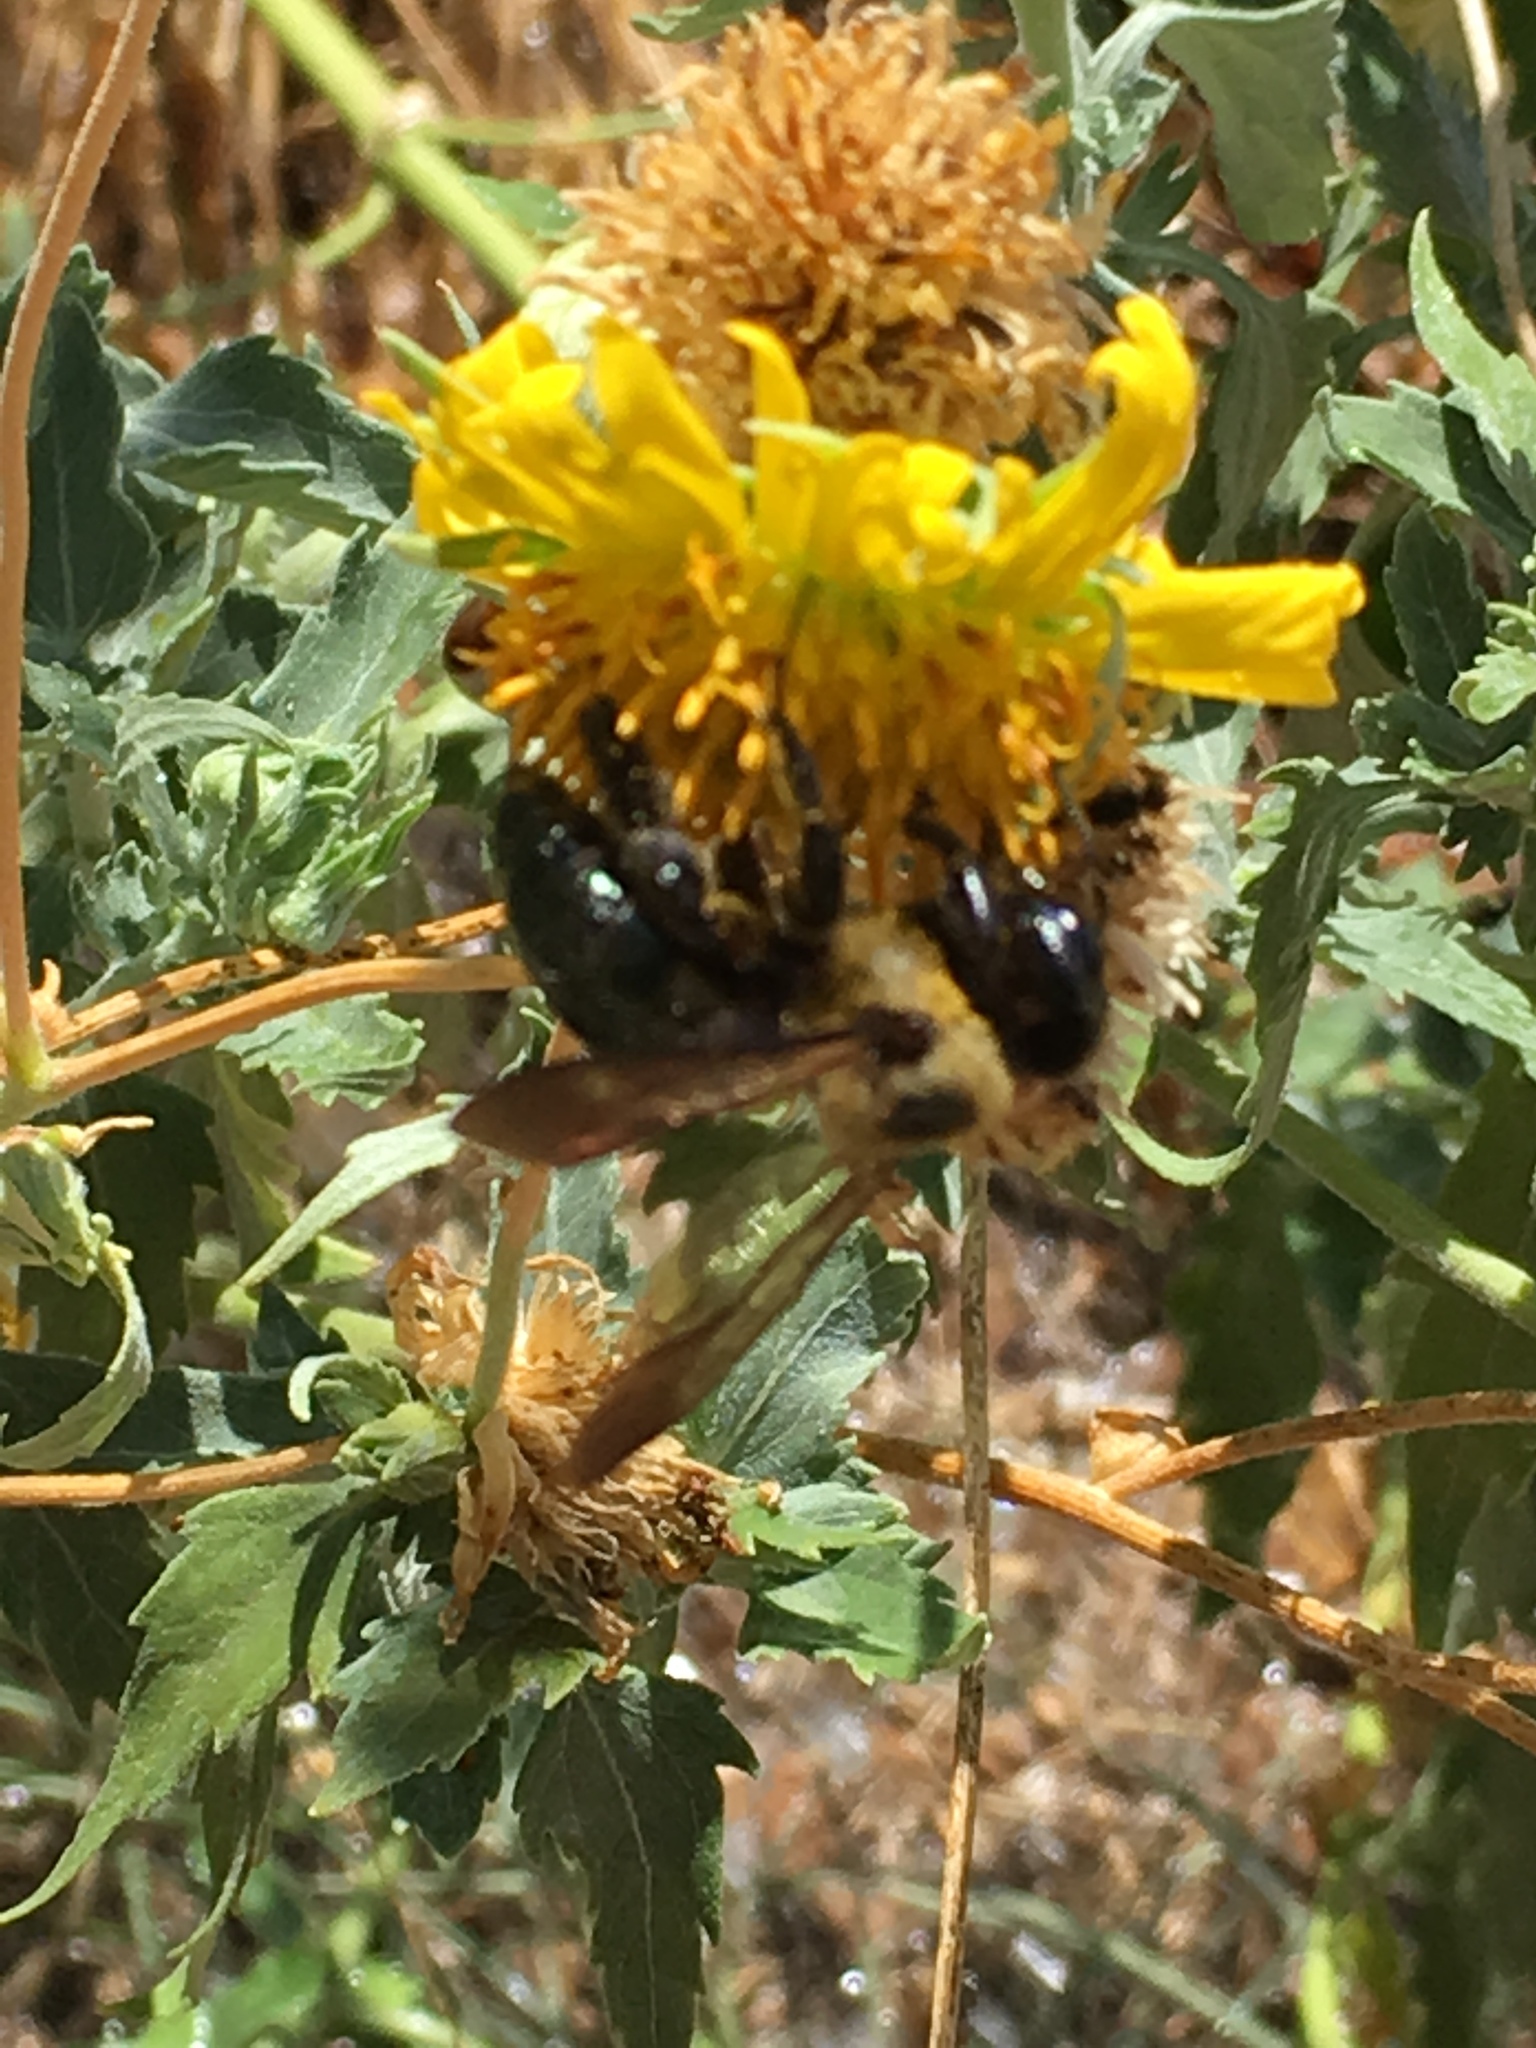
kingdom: Animalia
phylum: Arthropoda
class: Insecta
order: Hymenoptera
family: Apidae
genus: Xylocopa
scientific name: Xylocopa virginica
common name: Carpenter bee
